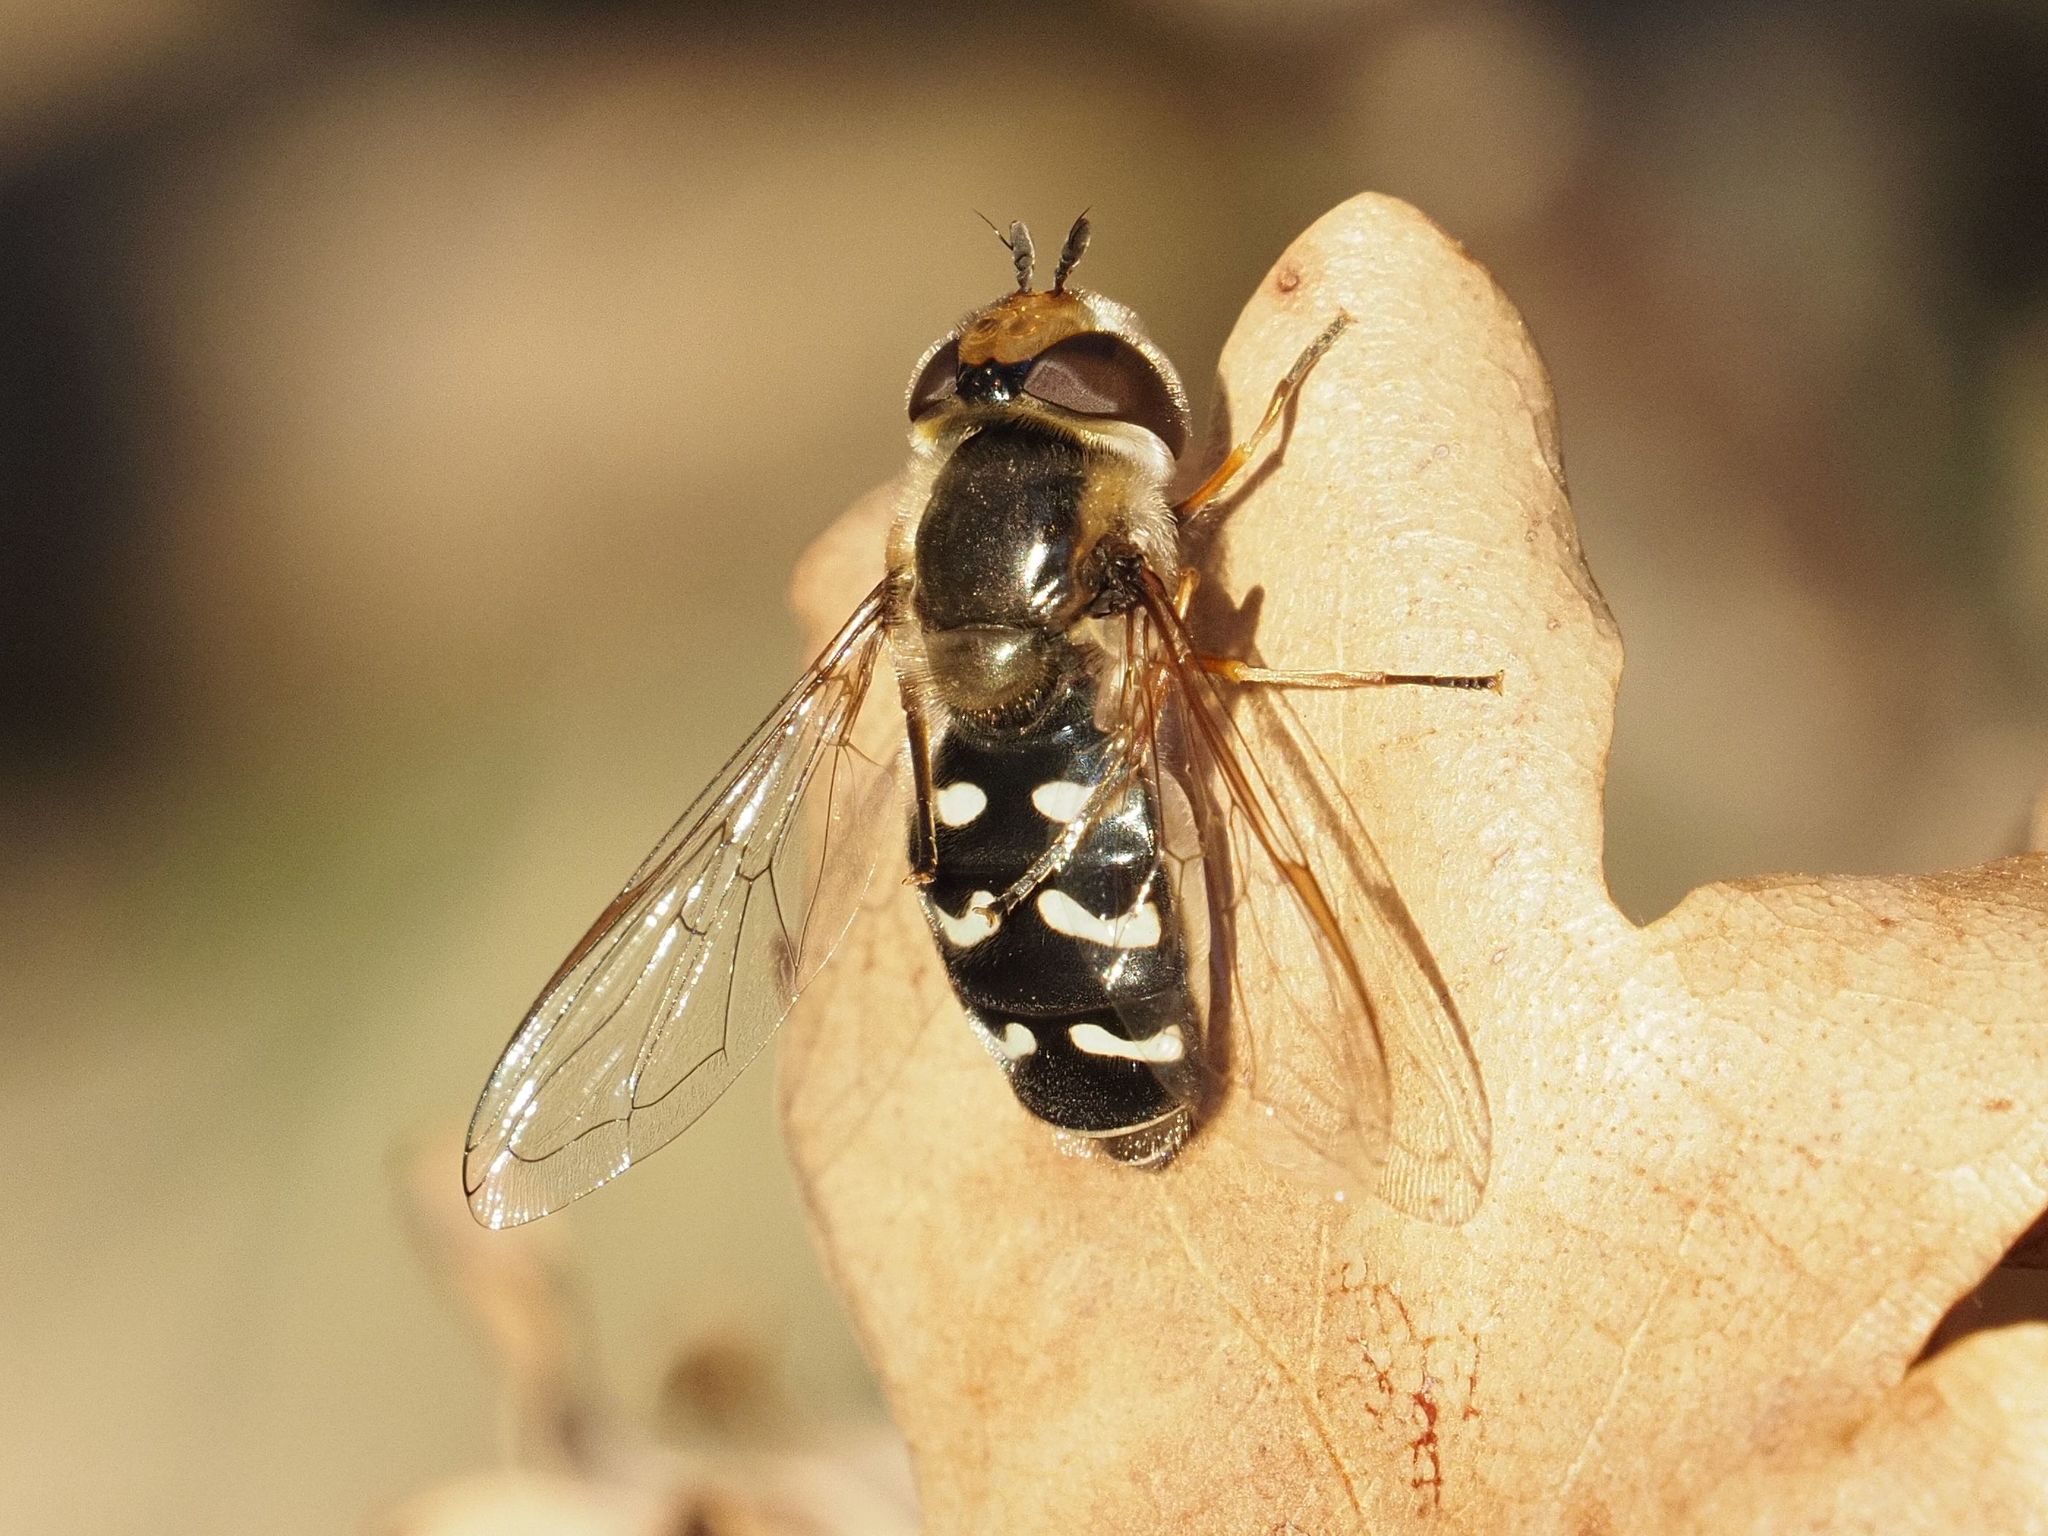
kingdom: Animalia
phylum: Arthropoda
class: Insecta
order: Diptera
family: Syrphidae
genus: Scaeva
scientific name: Scaeva pyrastri
